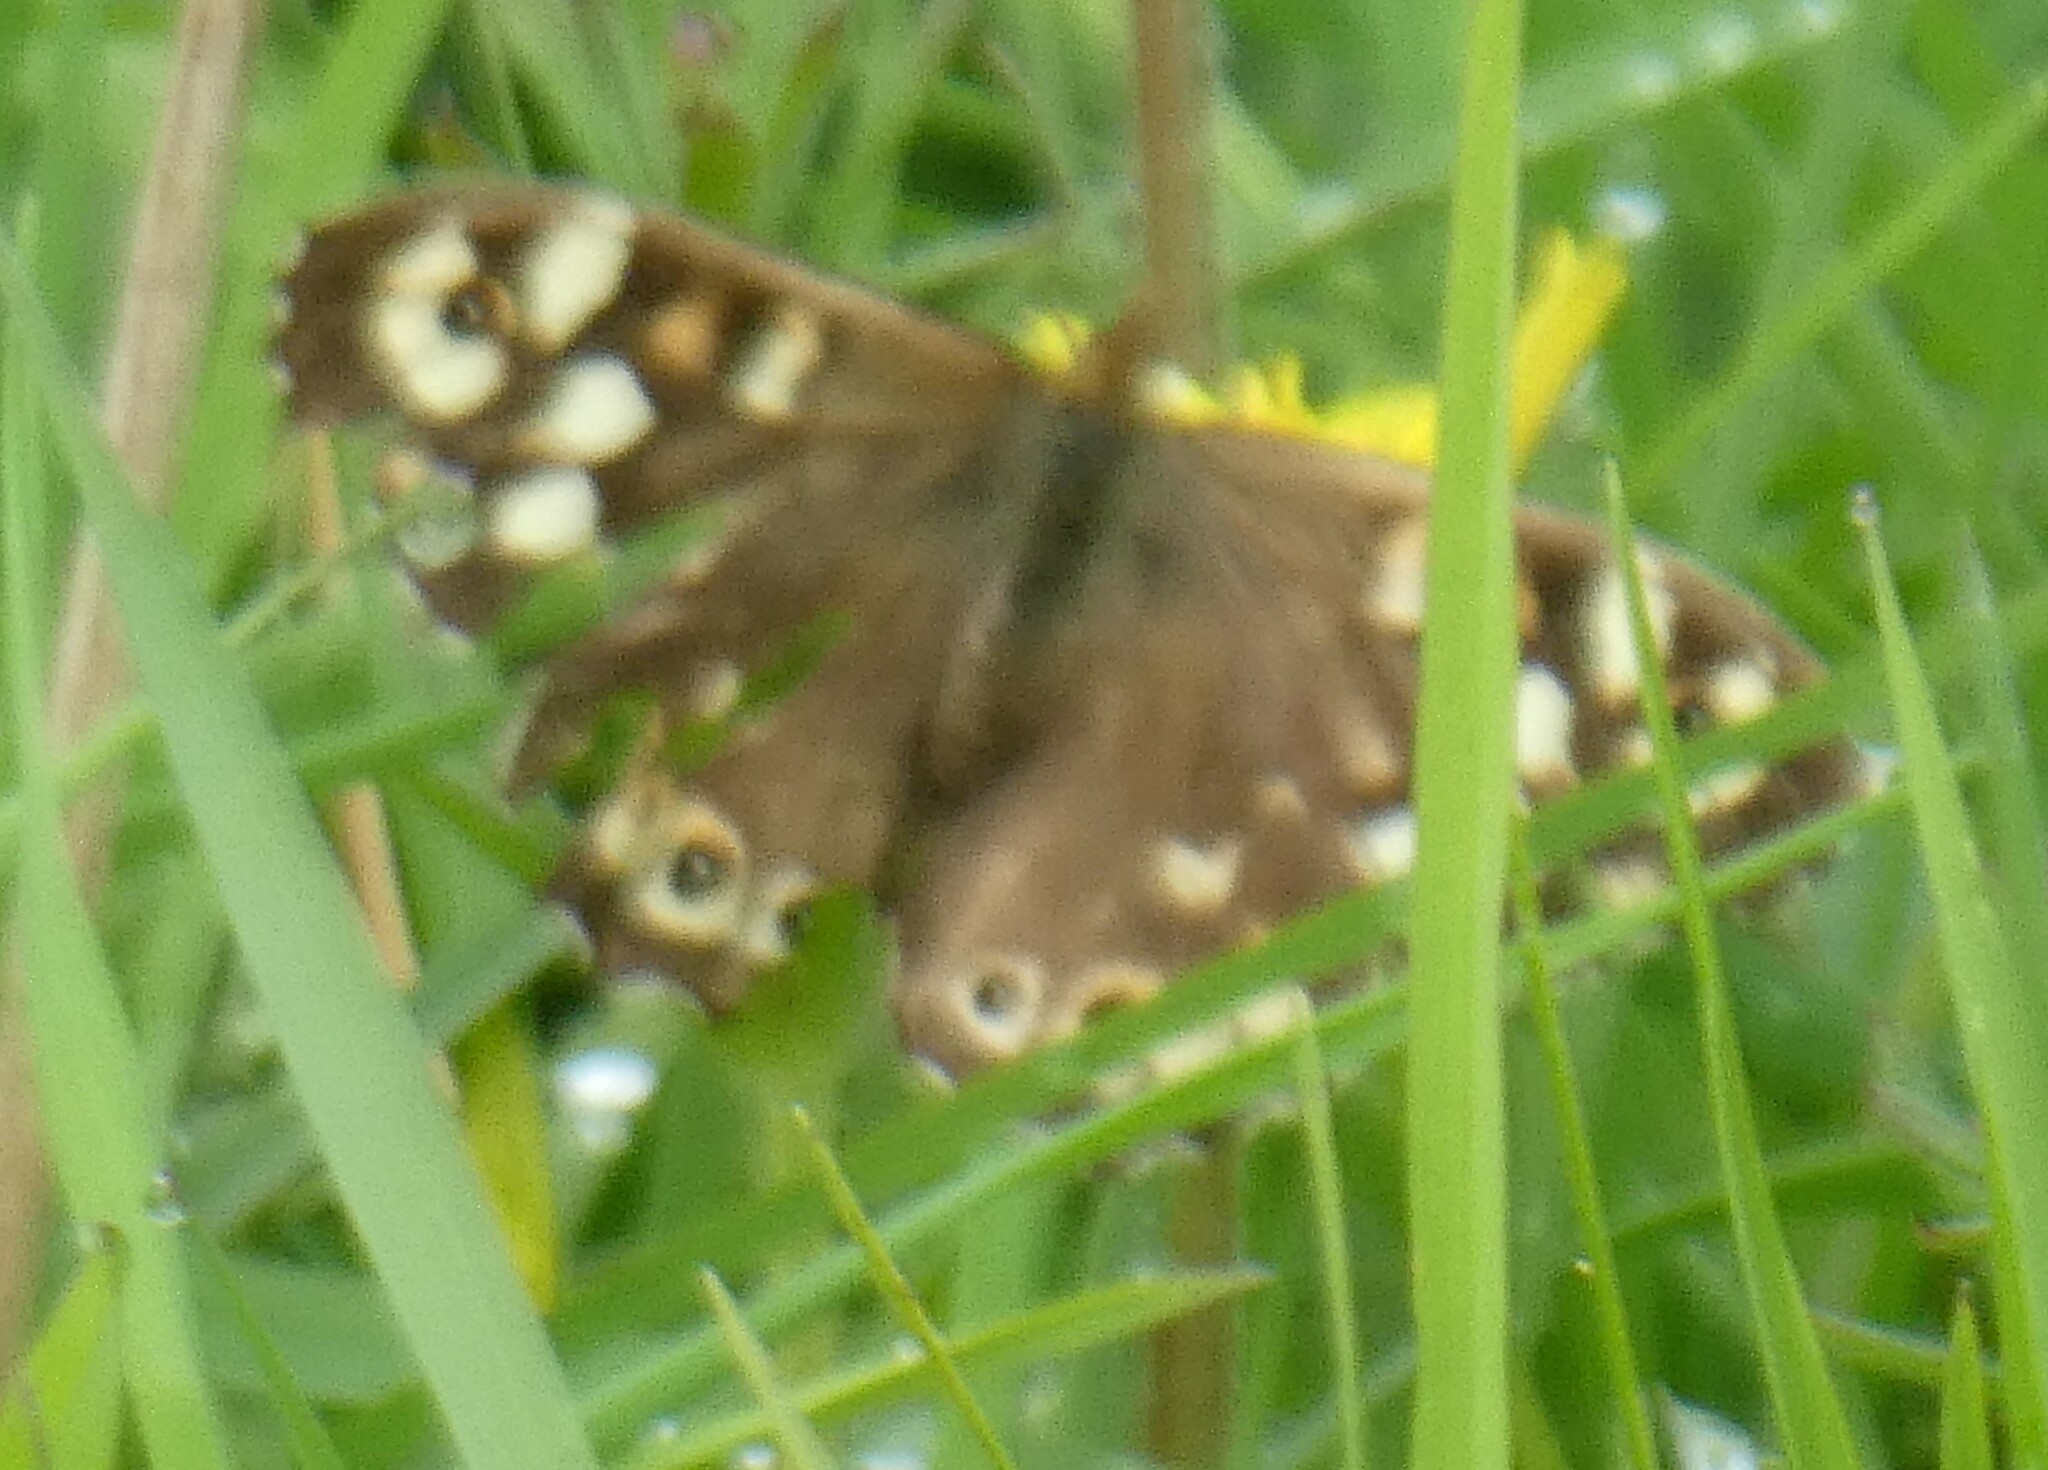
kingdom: Animalia
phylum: Arthropoda
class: Insecta
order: Lepidoptera
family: Nymphalidae
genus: Pararge
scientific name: Pararge aegeria
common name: Speckled wood
